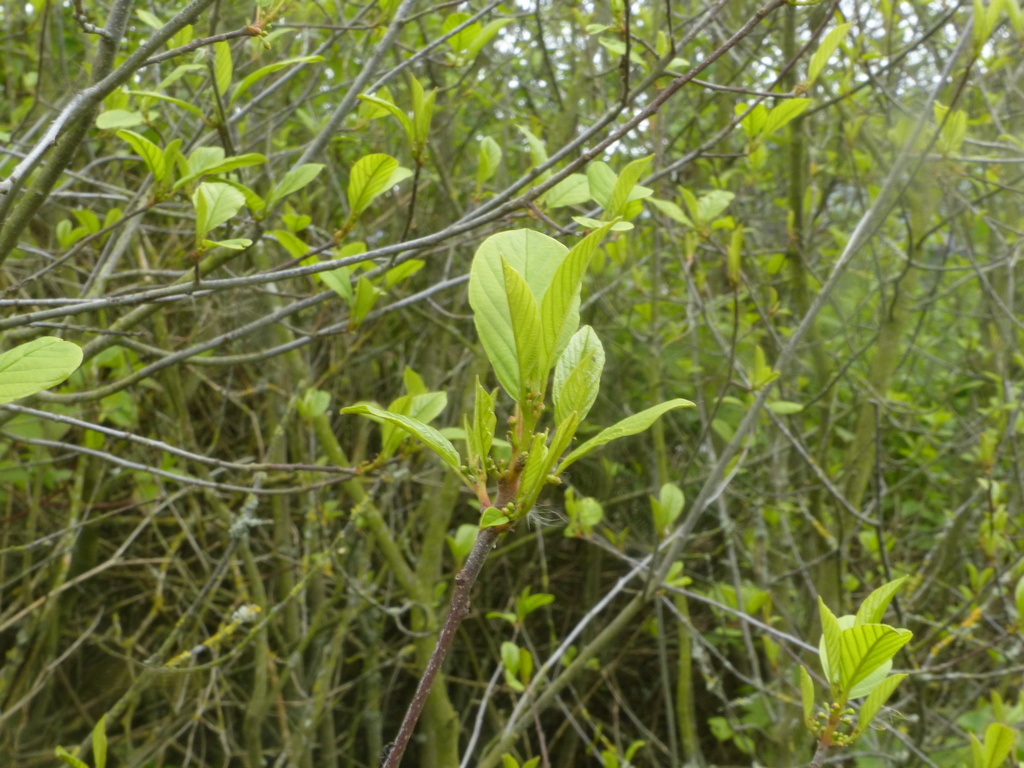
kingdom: Plantae
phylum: Tracheophyta
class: Magnoliopsida
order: Rosales
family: Rhamnaceae
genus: Frangula
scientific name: Frangula alnus
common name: Alder buckthorn
